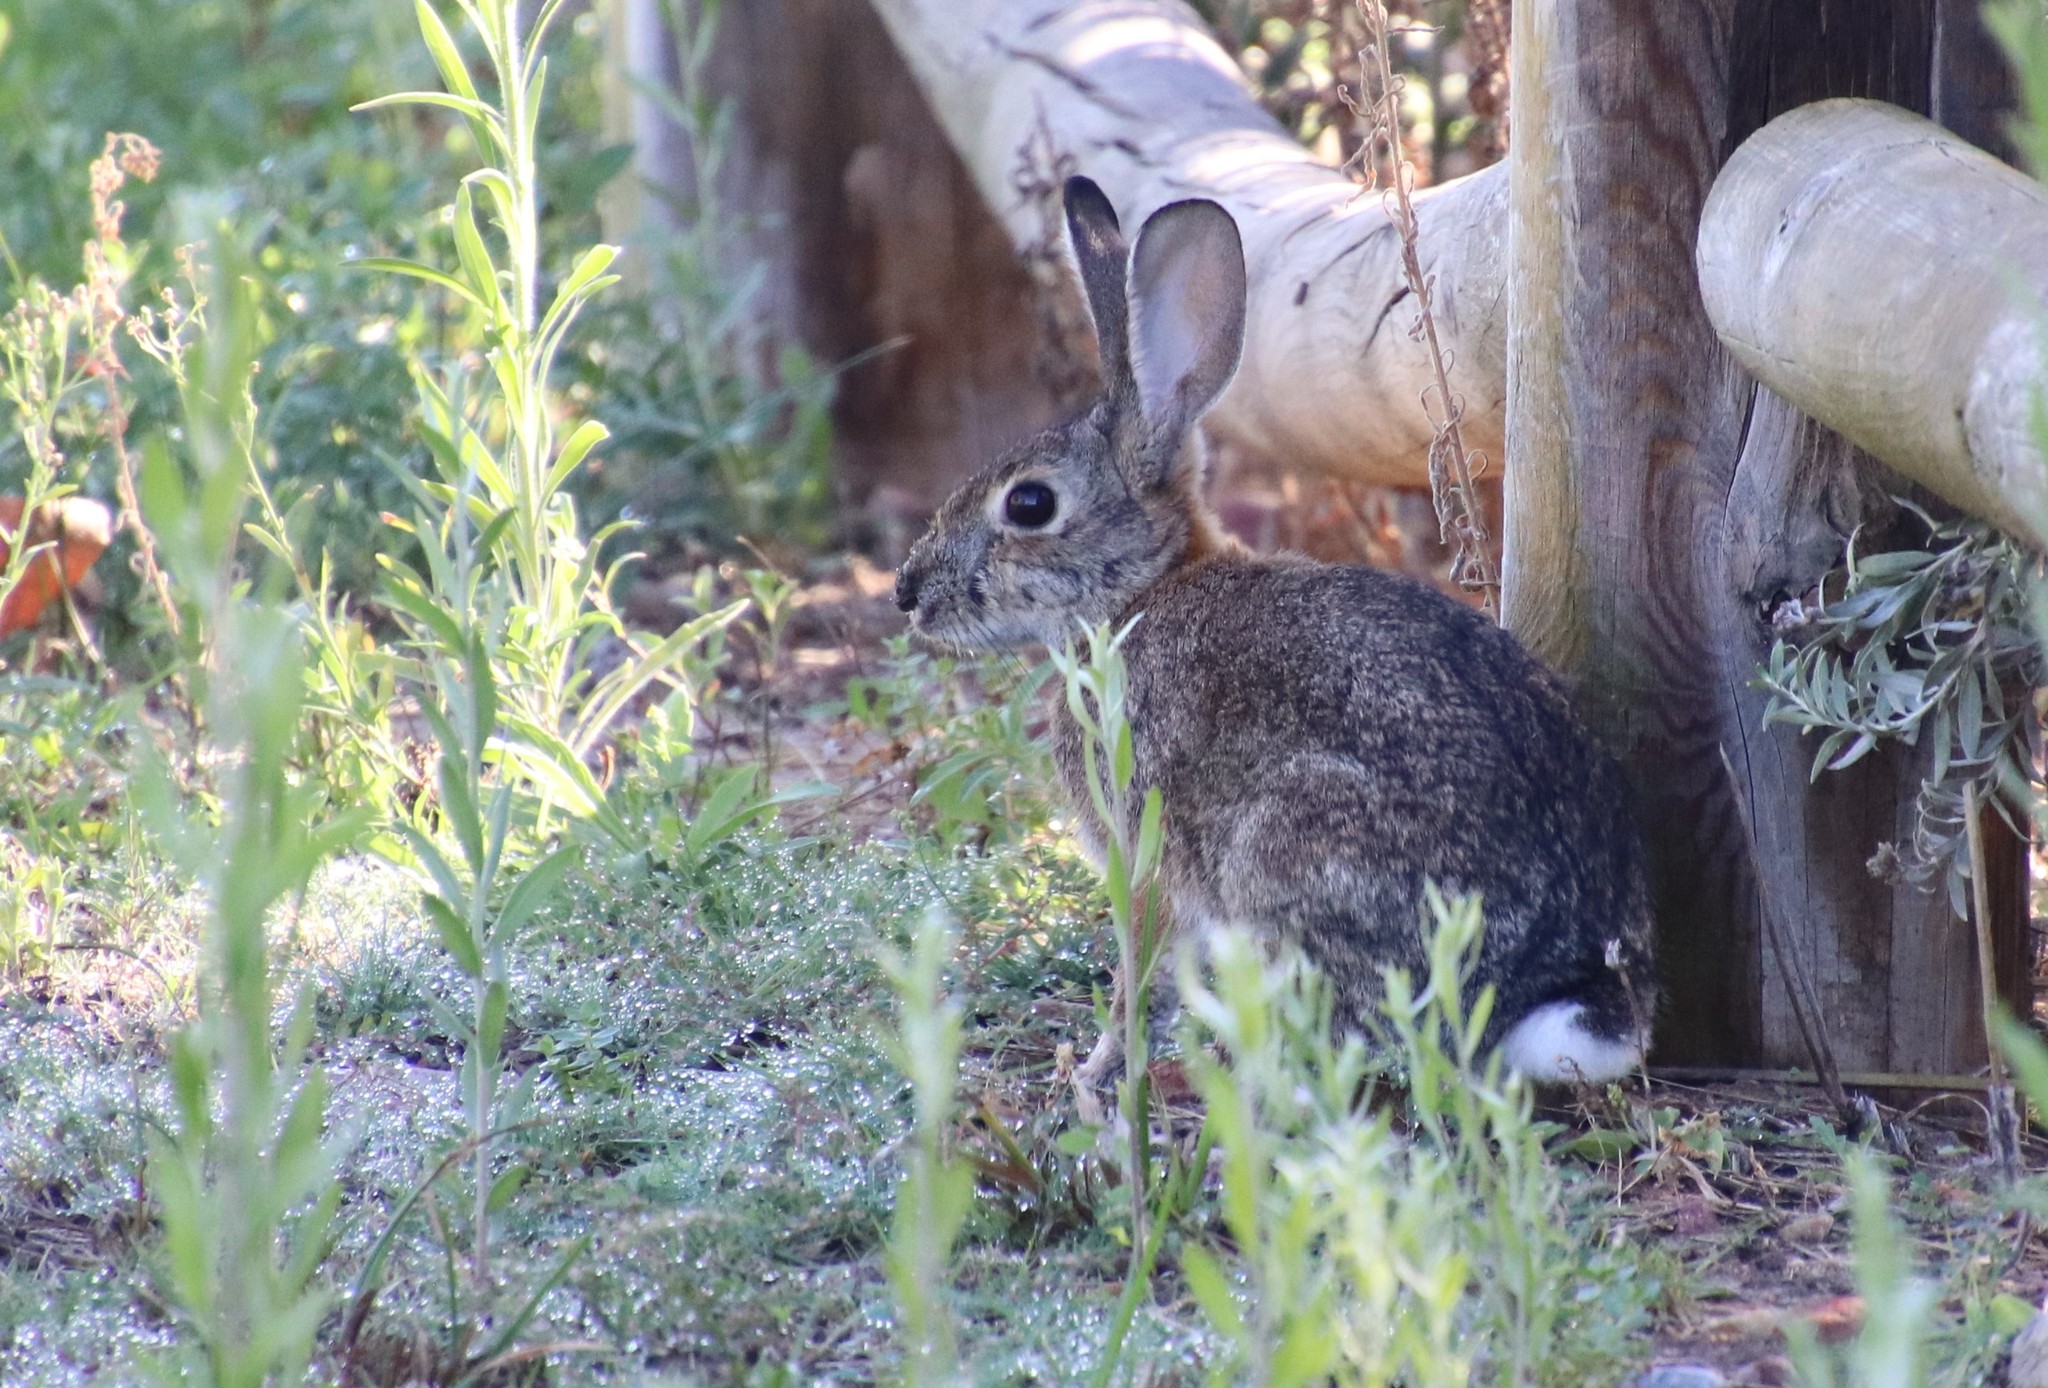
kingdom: Animalia
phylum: Chordata
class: Mammalia
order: Lagomorpha
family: Leporidae
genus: Sylvilagus
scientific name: Sylvilagus audubonii
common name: Desert cottontail
